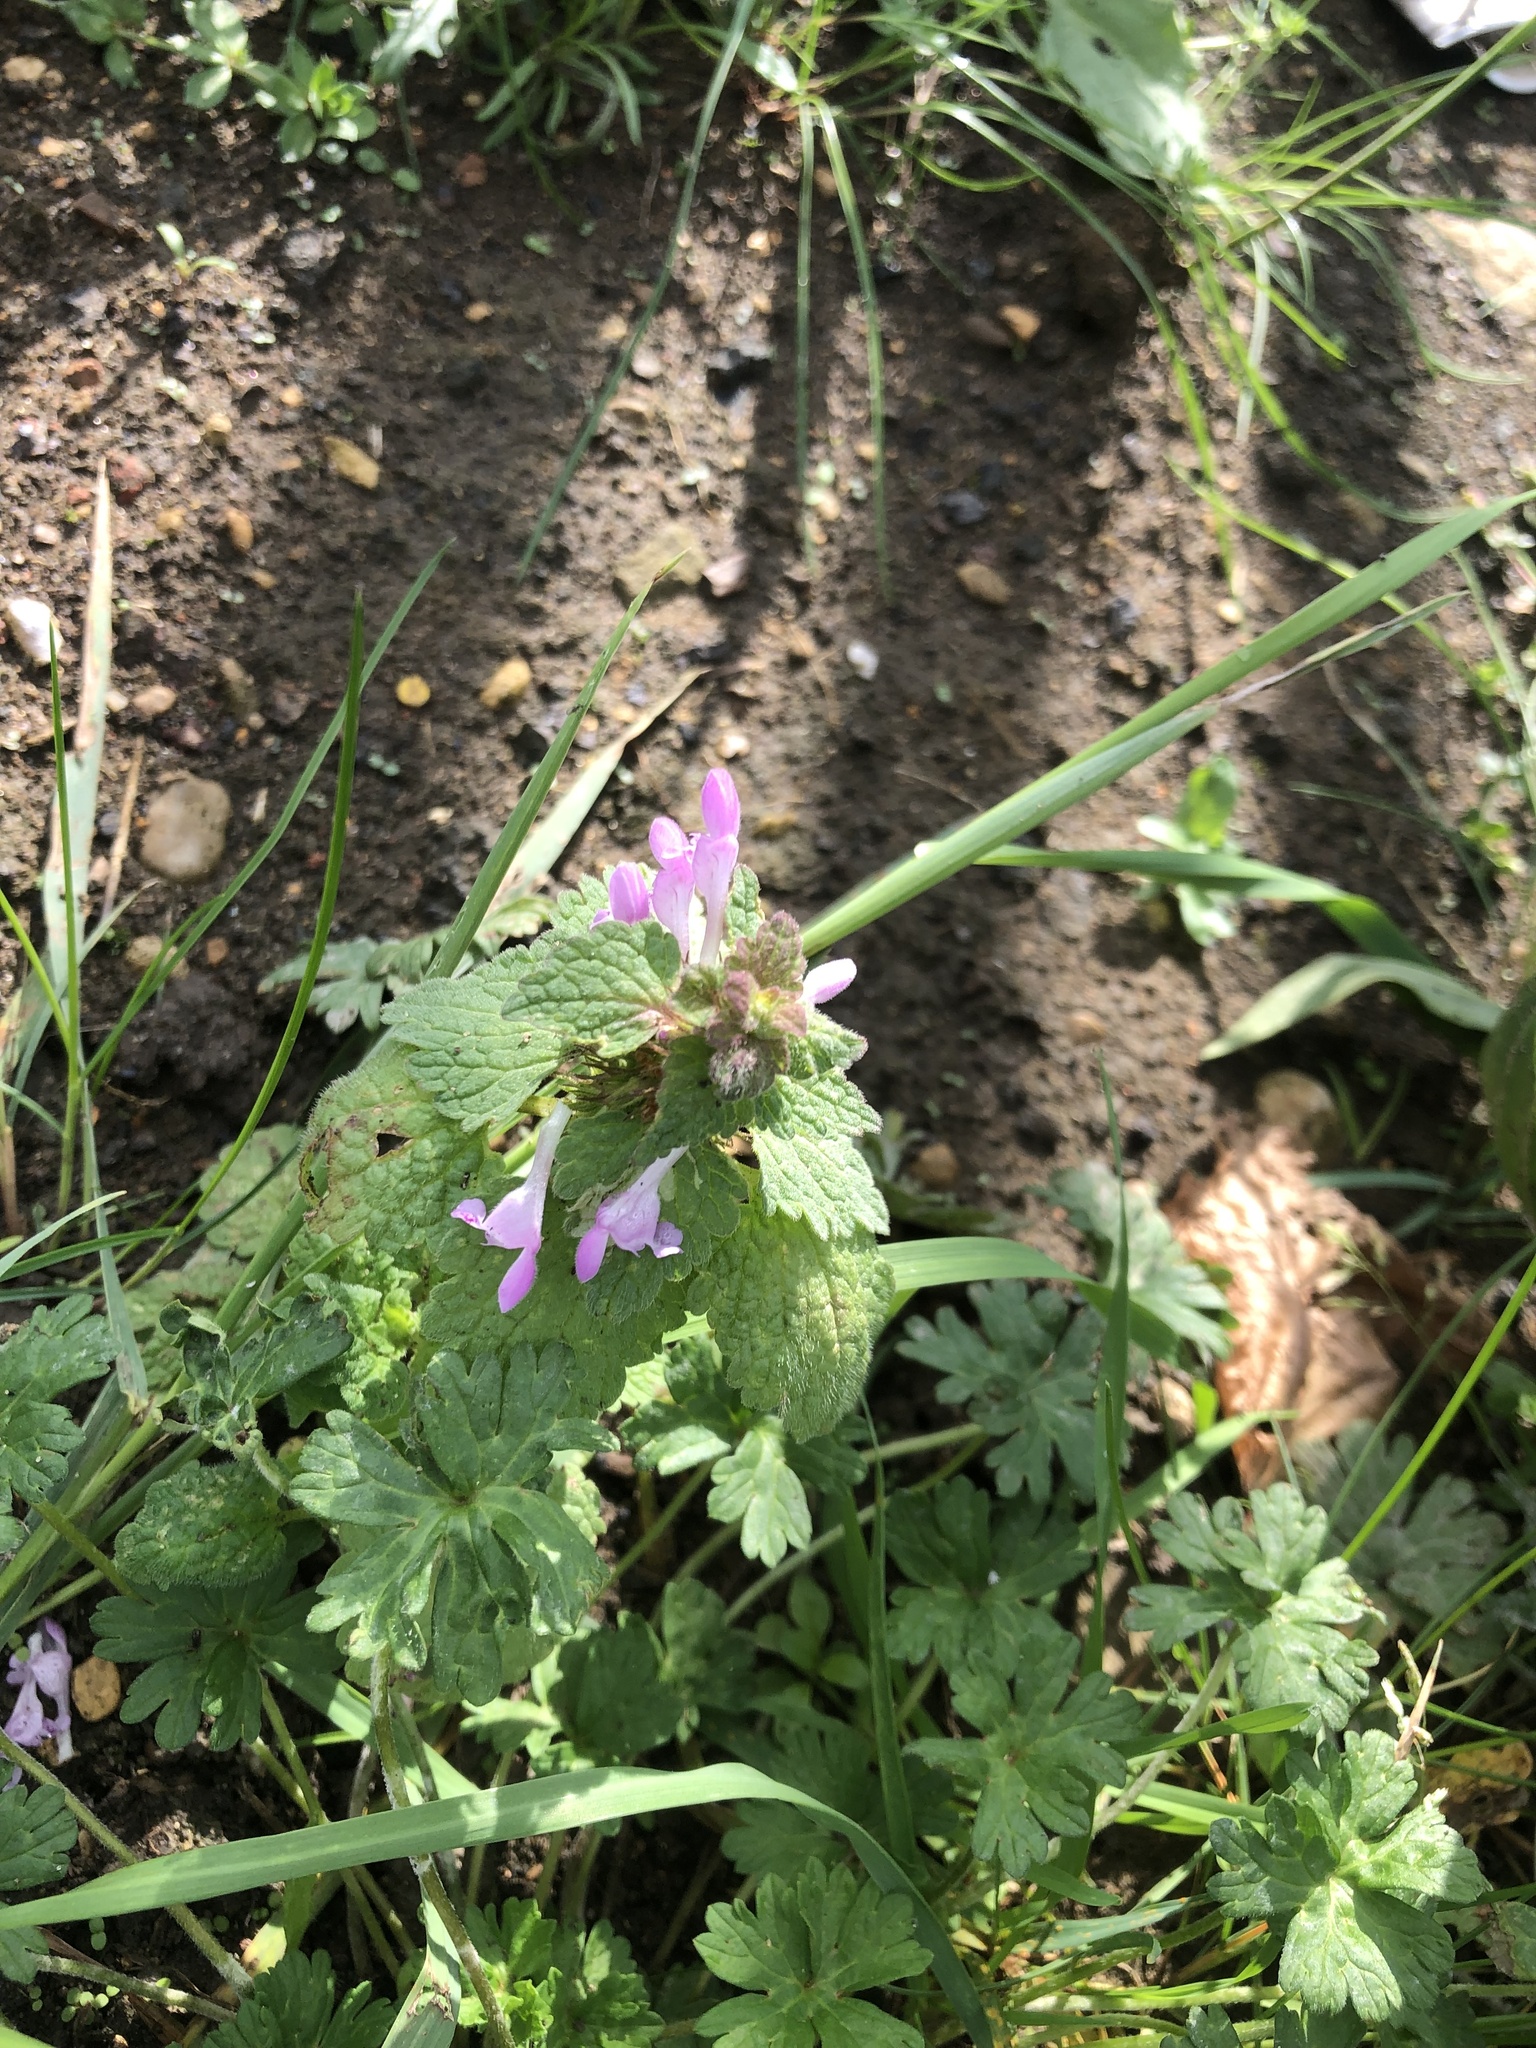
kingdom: Plantae
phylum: Tracheophyta
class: Magnoliopsida
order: Lamiales
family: Lamiaceae
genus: Lamium
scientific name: Lamium purpureum
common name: Red dead-nettle
